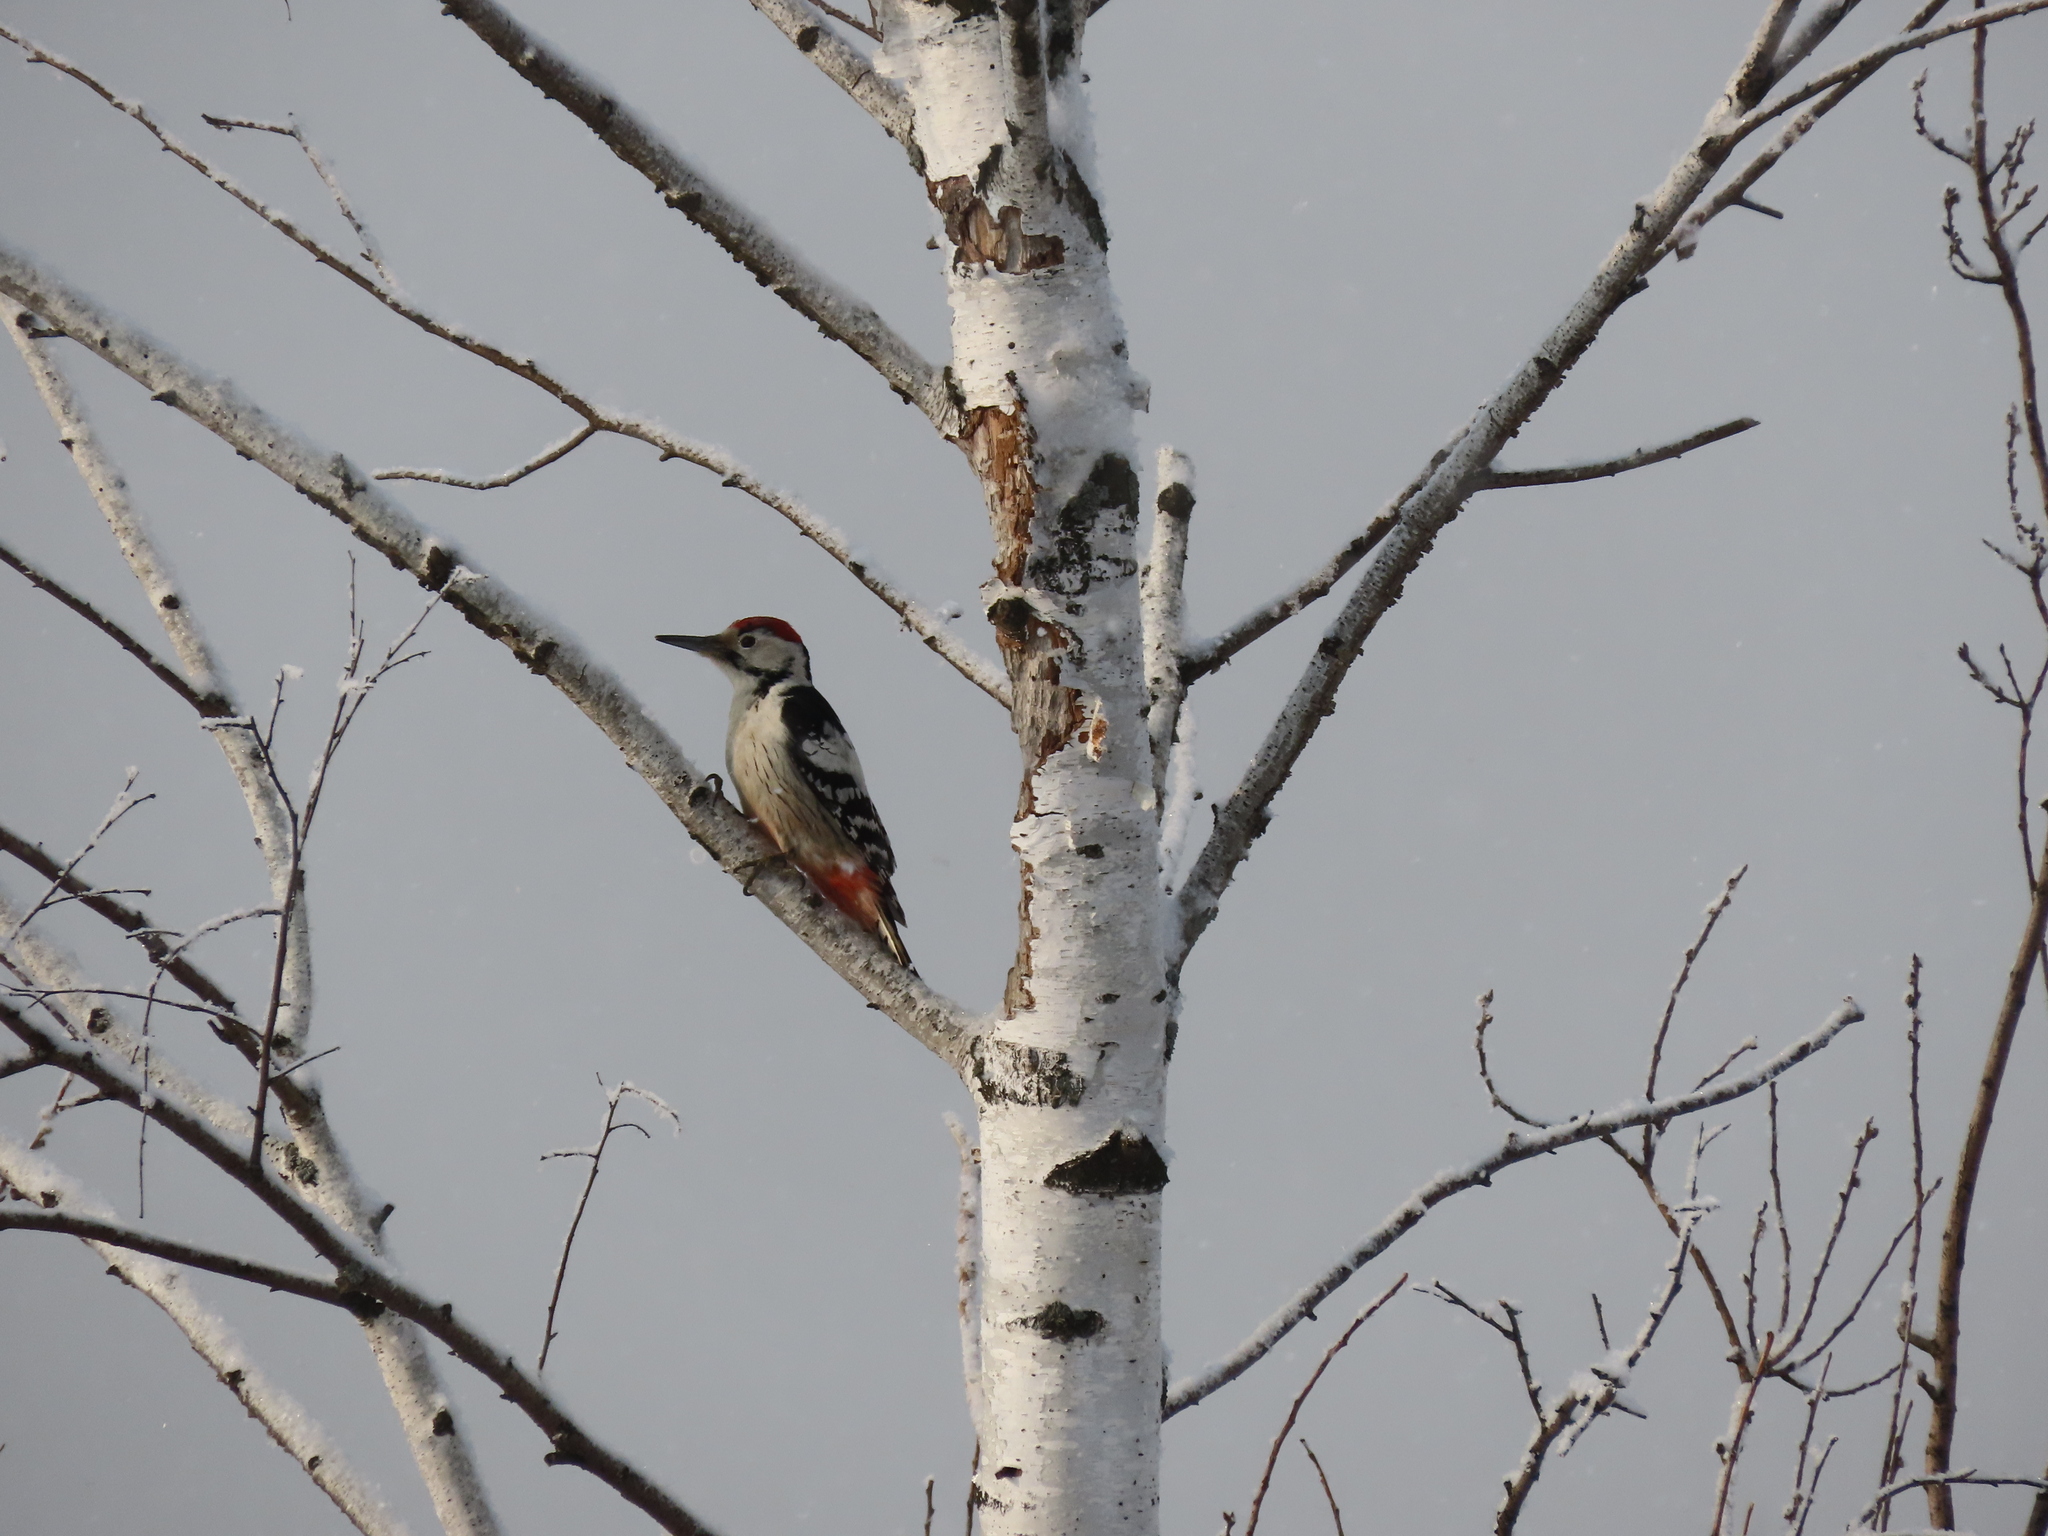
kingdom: Animalia
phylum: Chordata
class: Aves
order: Piciformes
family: Picidae
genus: Dendrocopos
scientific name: Dendrocopos leucotos
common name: White-backed woodpecker
